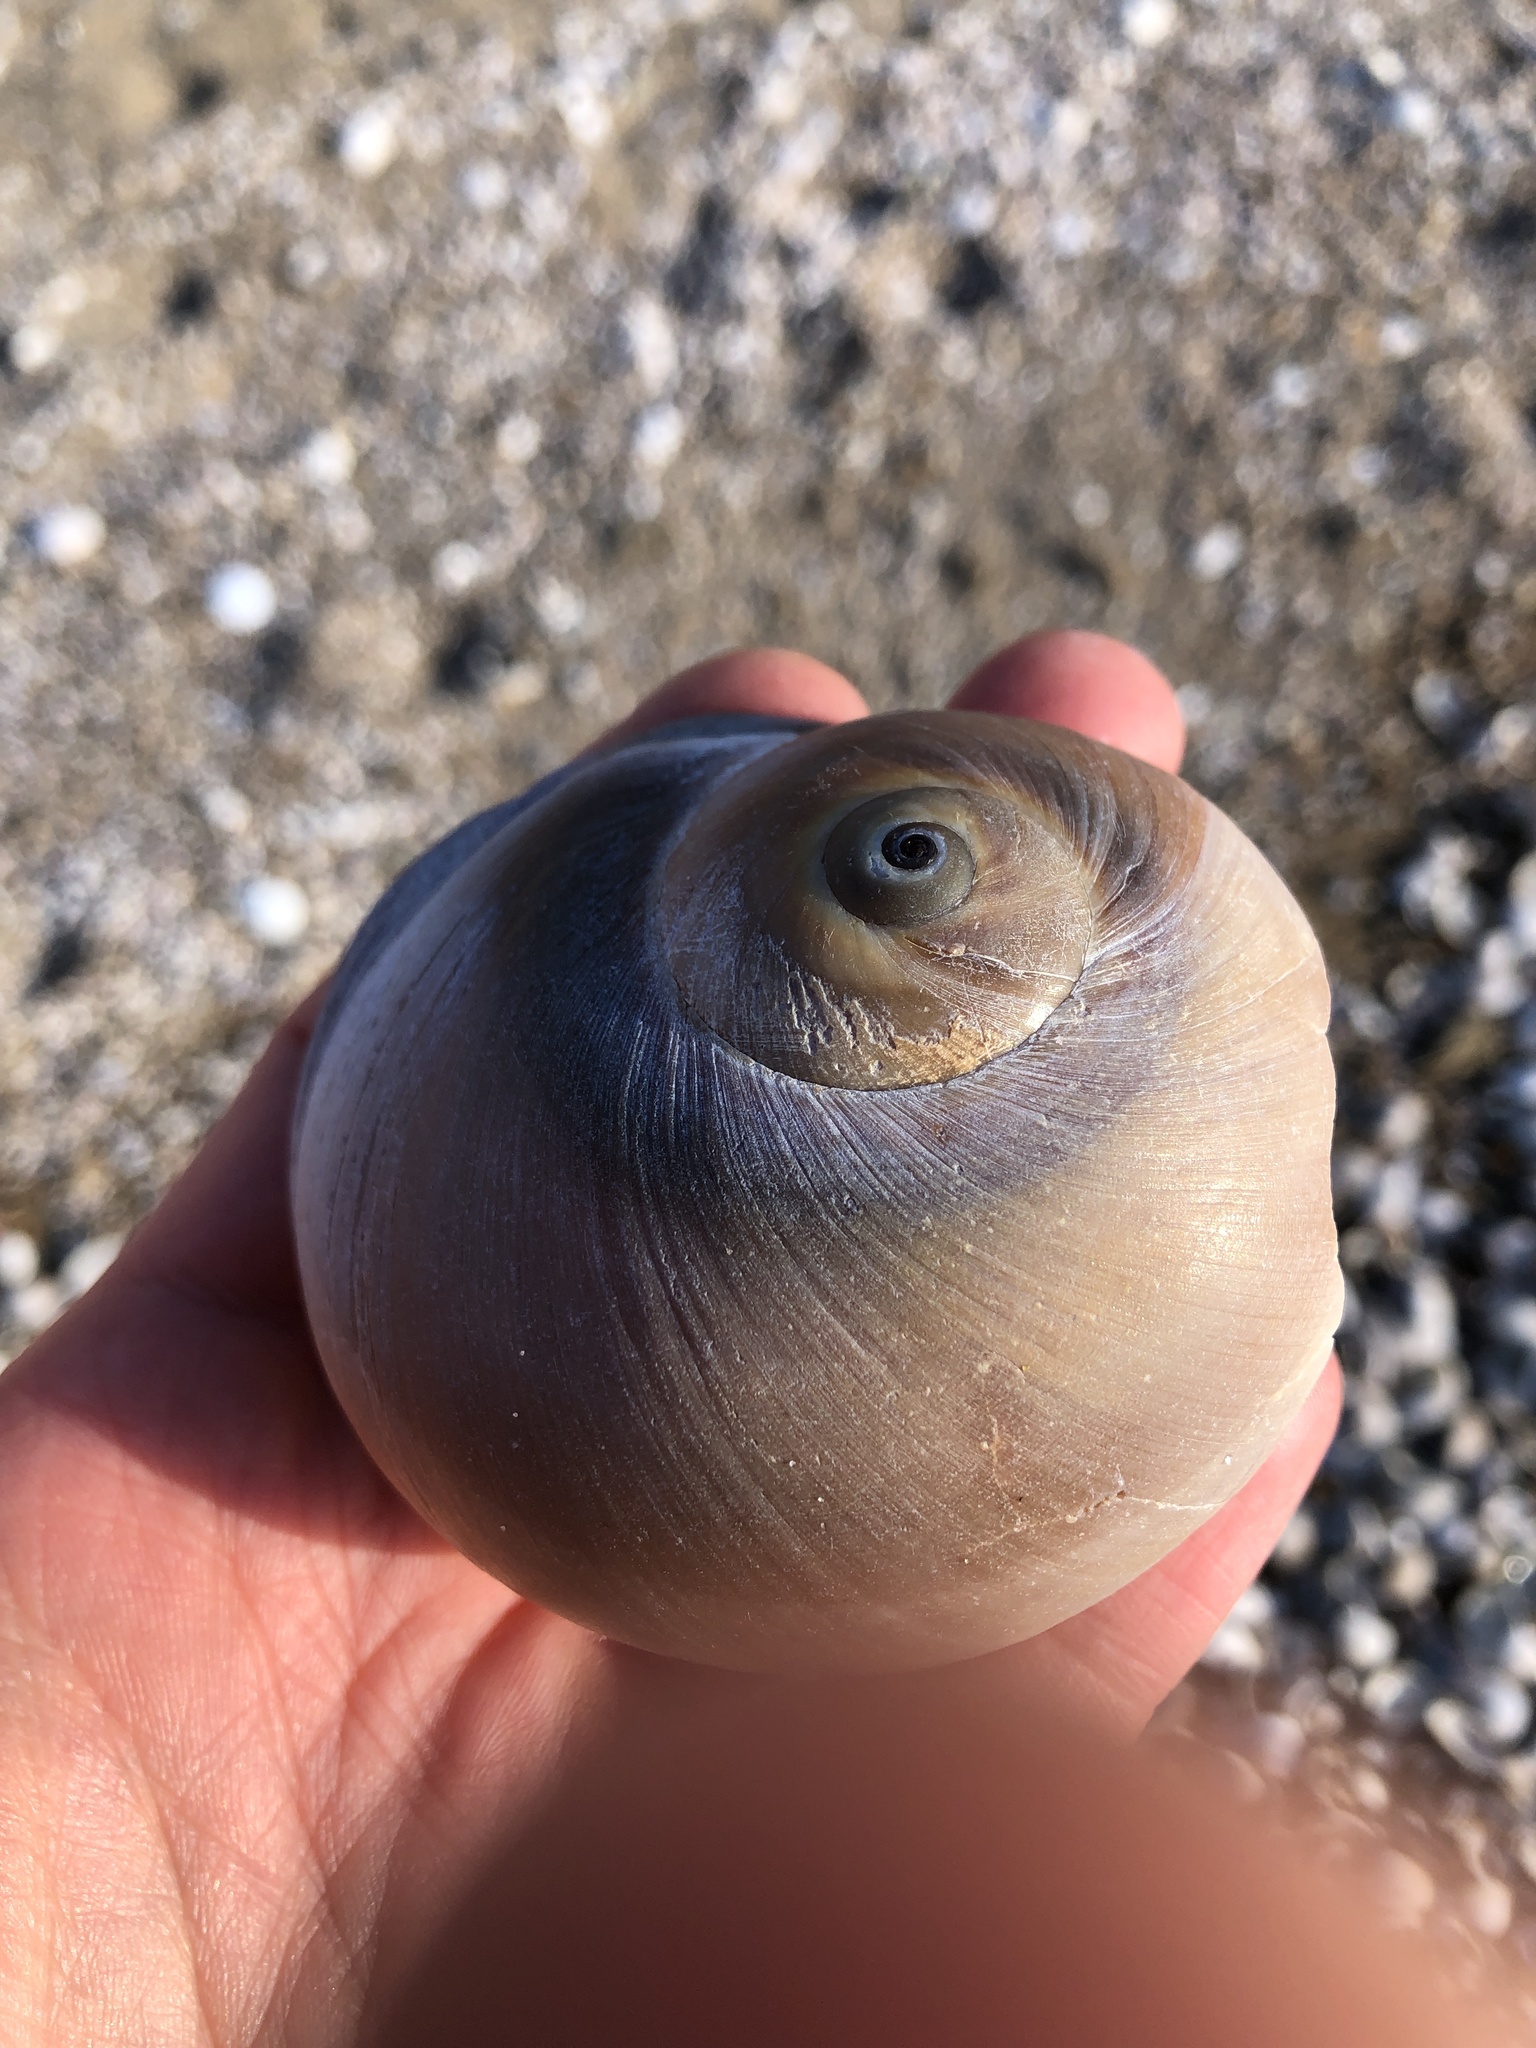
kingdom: Animalia
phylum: Mollusca
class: Gastropoda
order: Littorinimorpha
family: Naticidae
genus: Neverita
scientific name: Neverita didyma
